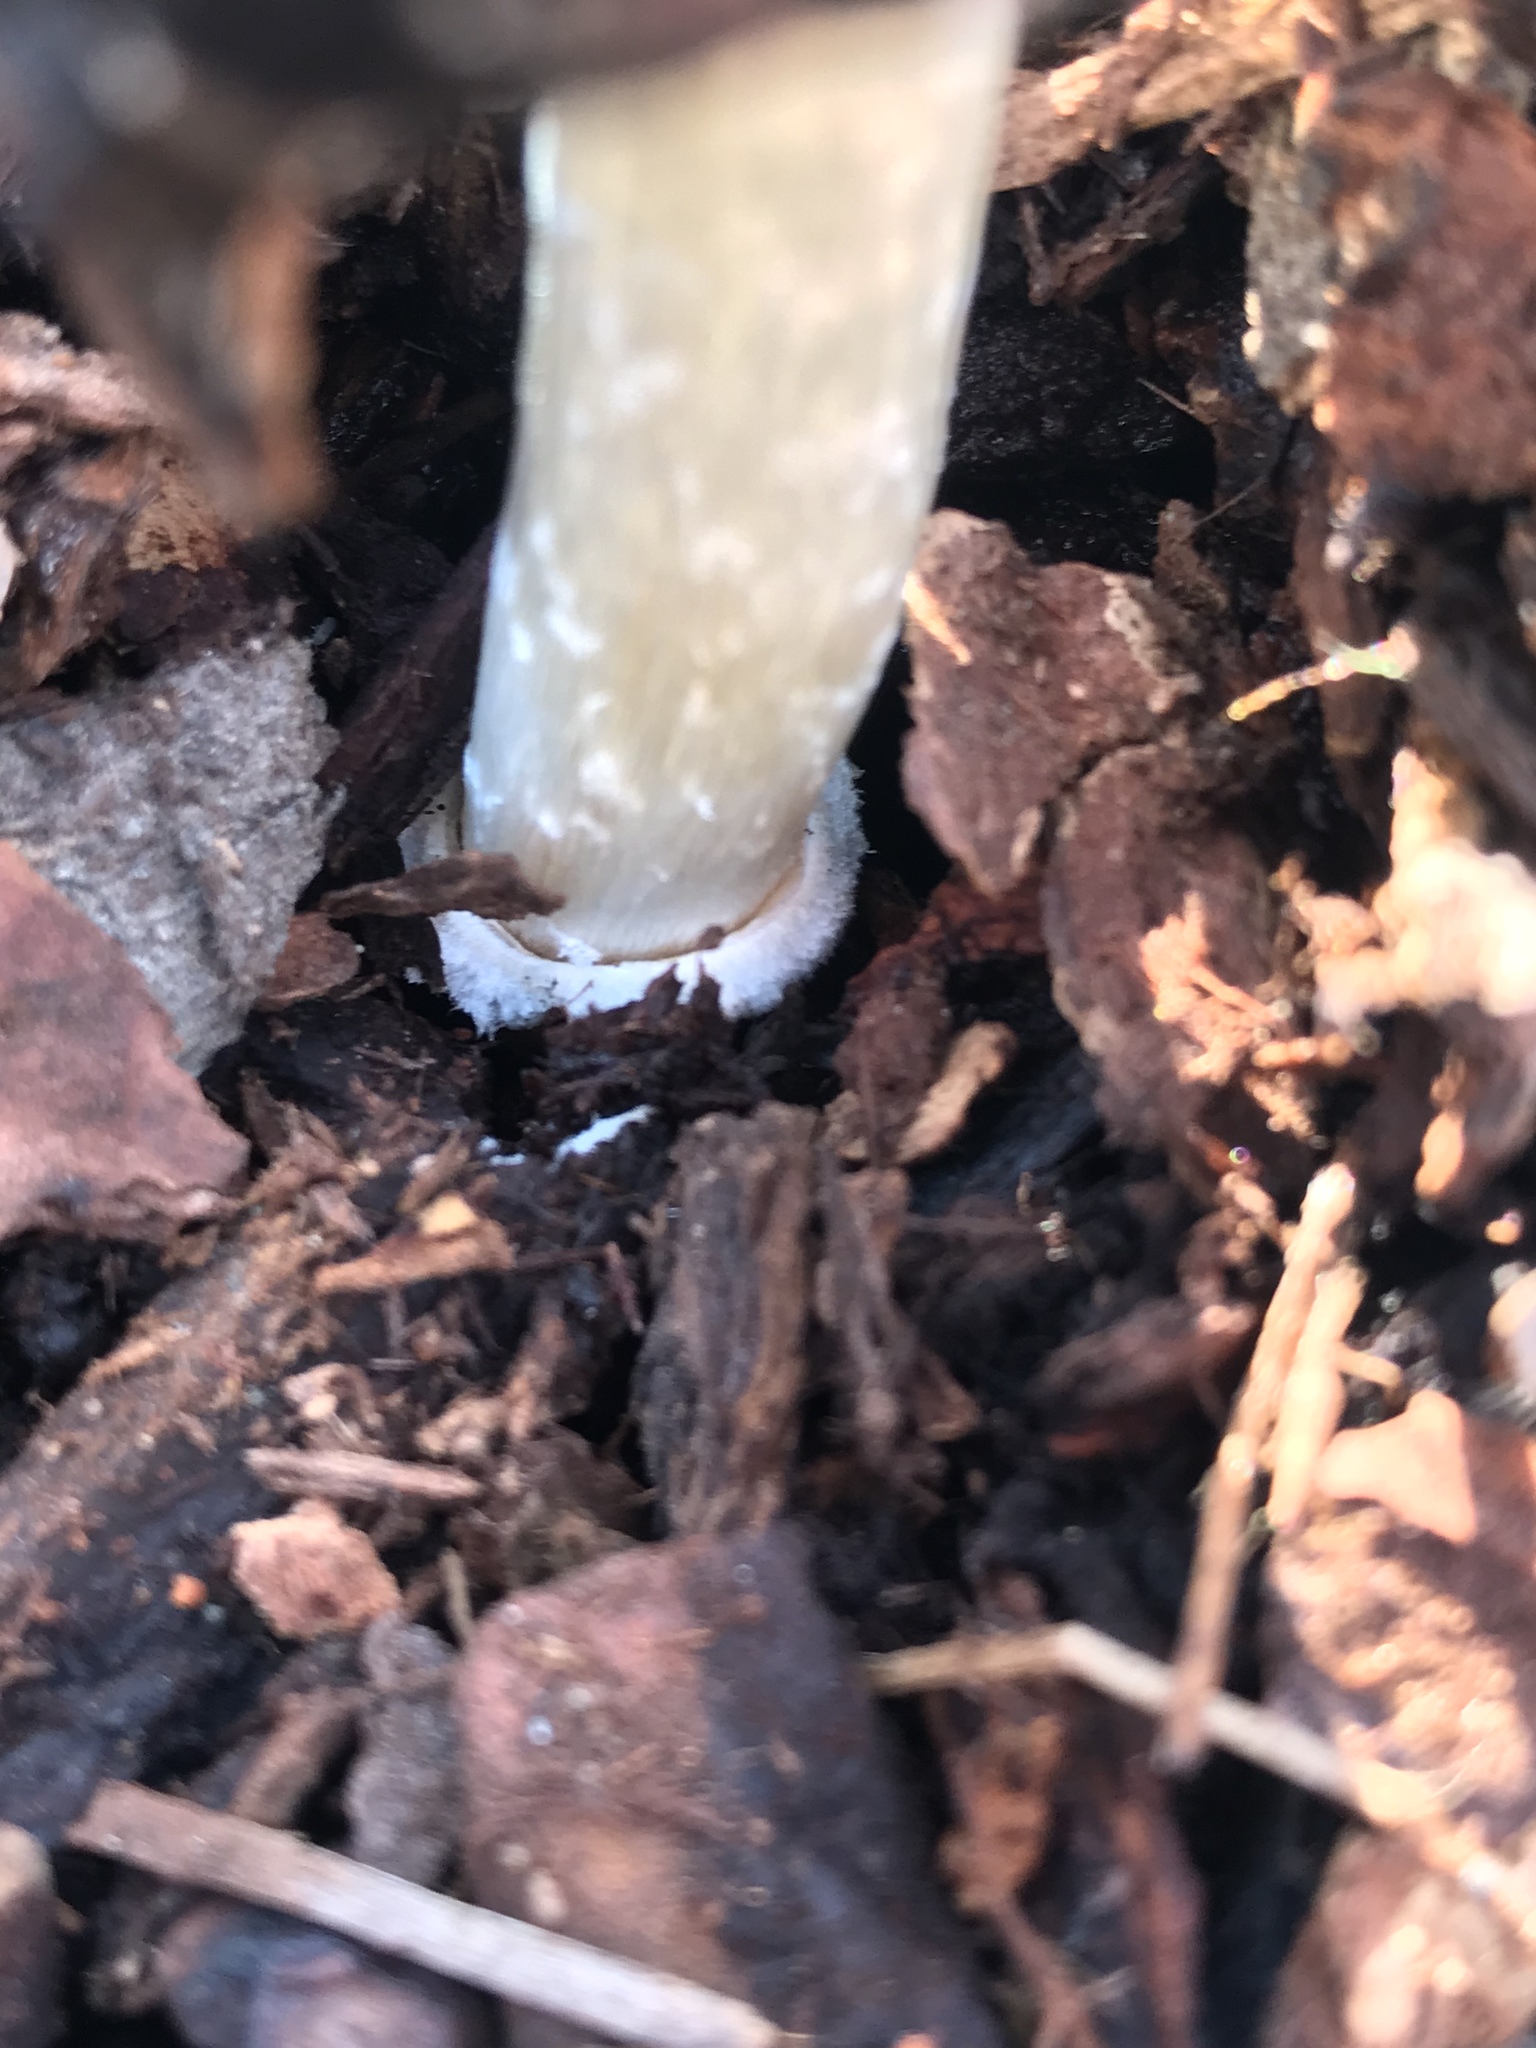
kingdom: Fungi
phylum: Basidiomycota
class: Agaricomycetes
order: Agaricales
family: Agaricaceae
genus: Coprinus
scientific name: Coprinus comatus
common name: Lawyer's wig
